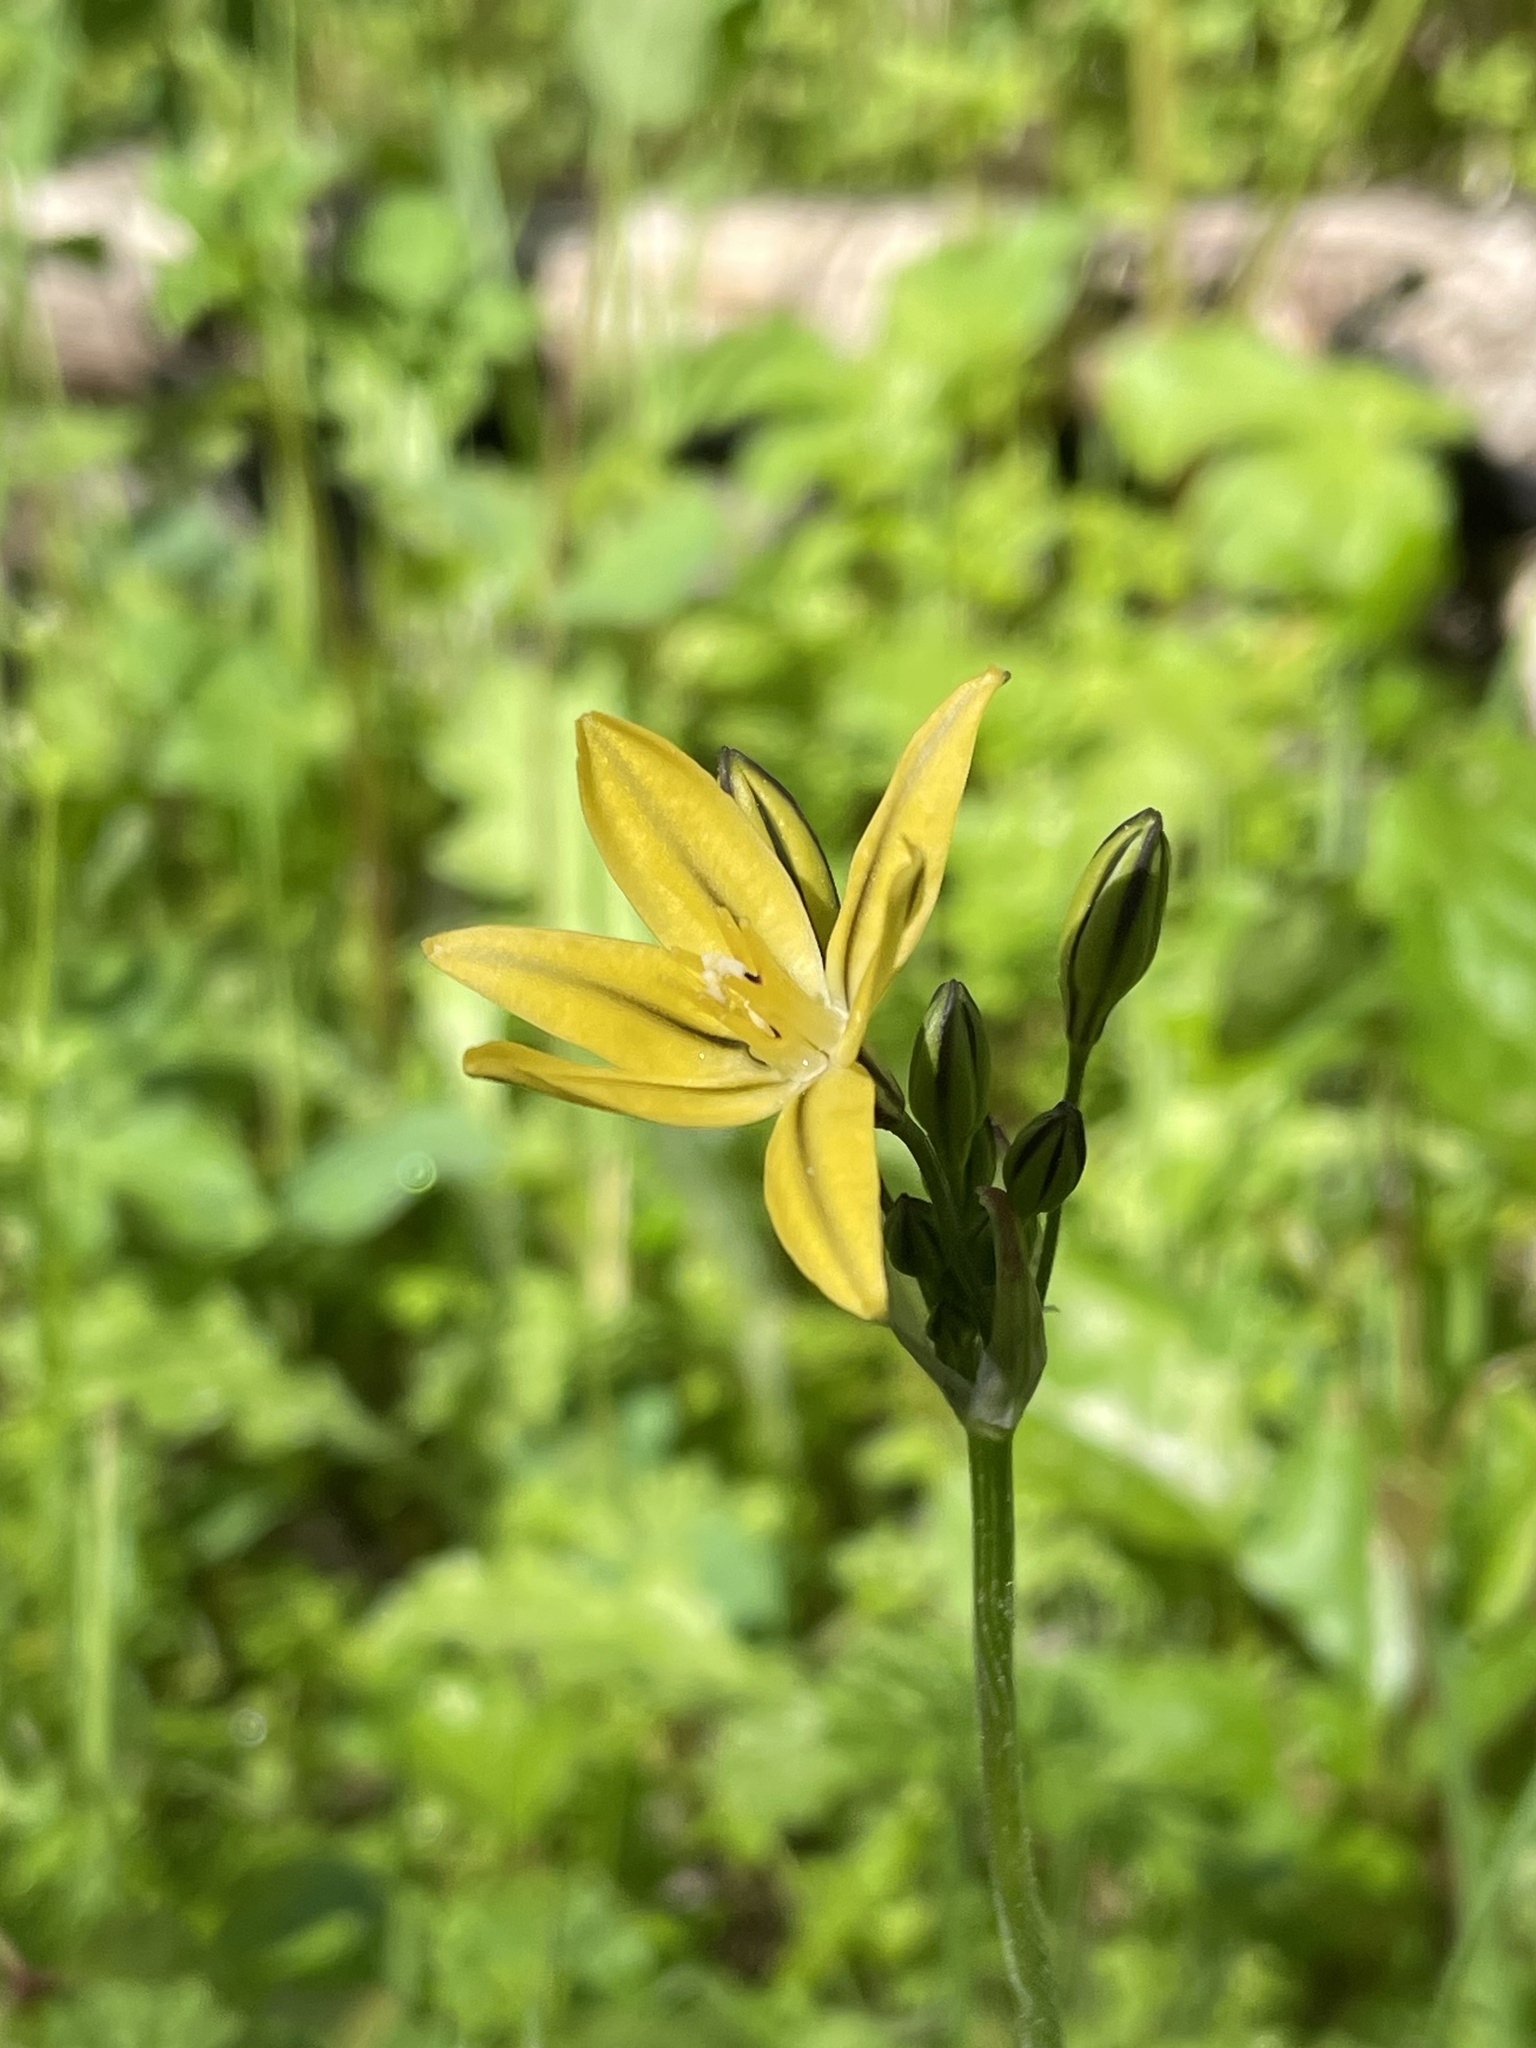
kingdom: Plantae
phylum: Tracheophyta
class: Liliopsida
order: Asparagales
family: Asparagaceae
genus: Triteleia
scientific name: Triteleia ixioides
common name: Yellow-brodiaea
